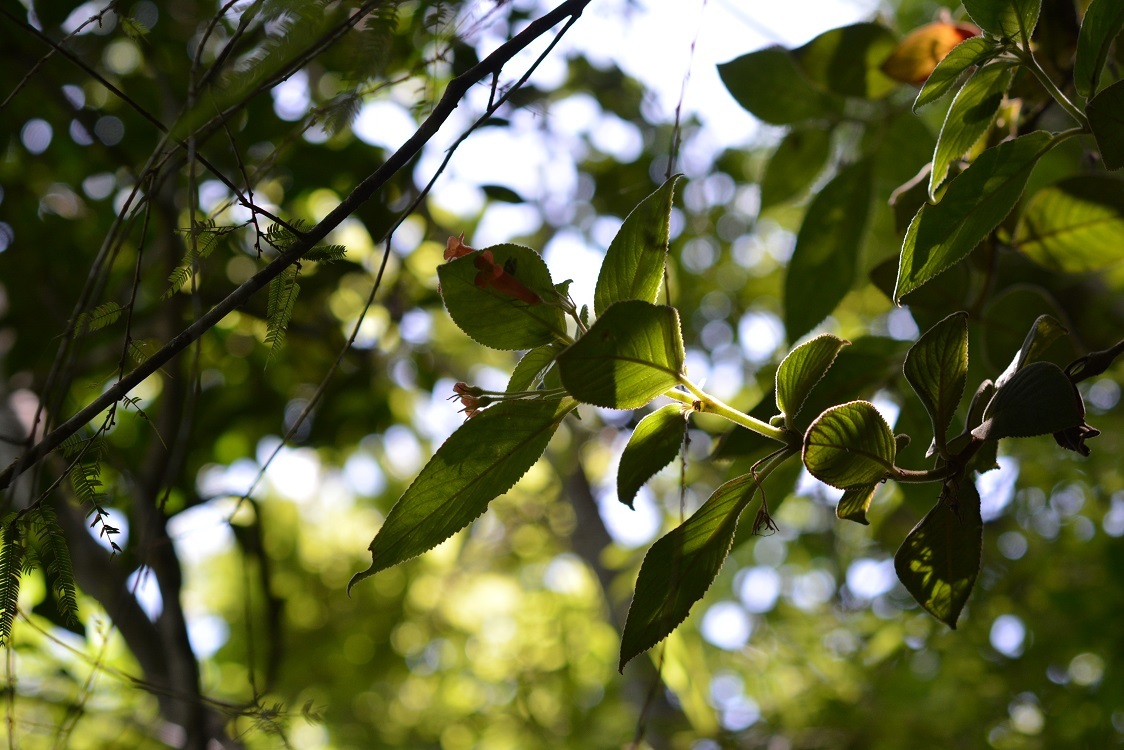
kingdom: Plantae
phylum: Tracheophyta
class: Magnoliopsida
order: Lamiales
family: Gesneriaceae
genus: Moussonia
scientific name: Moussonia deppeana
